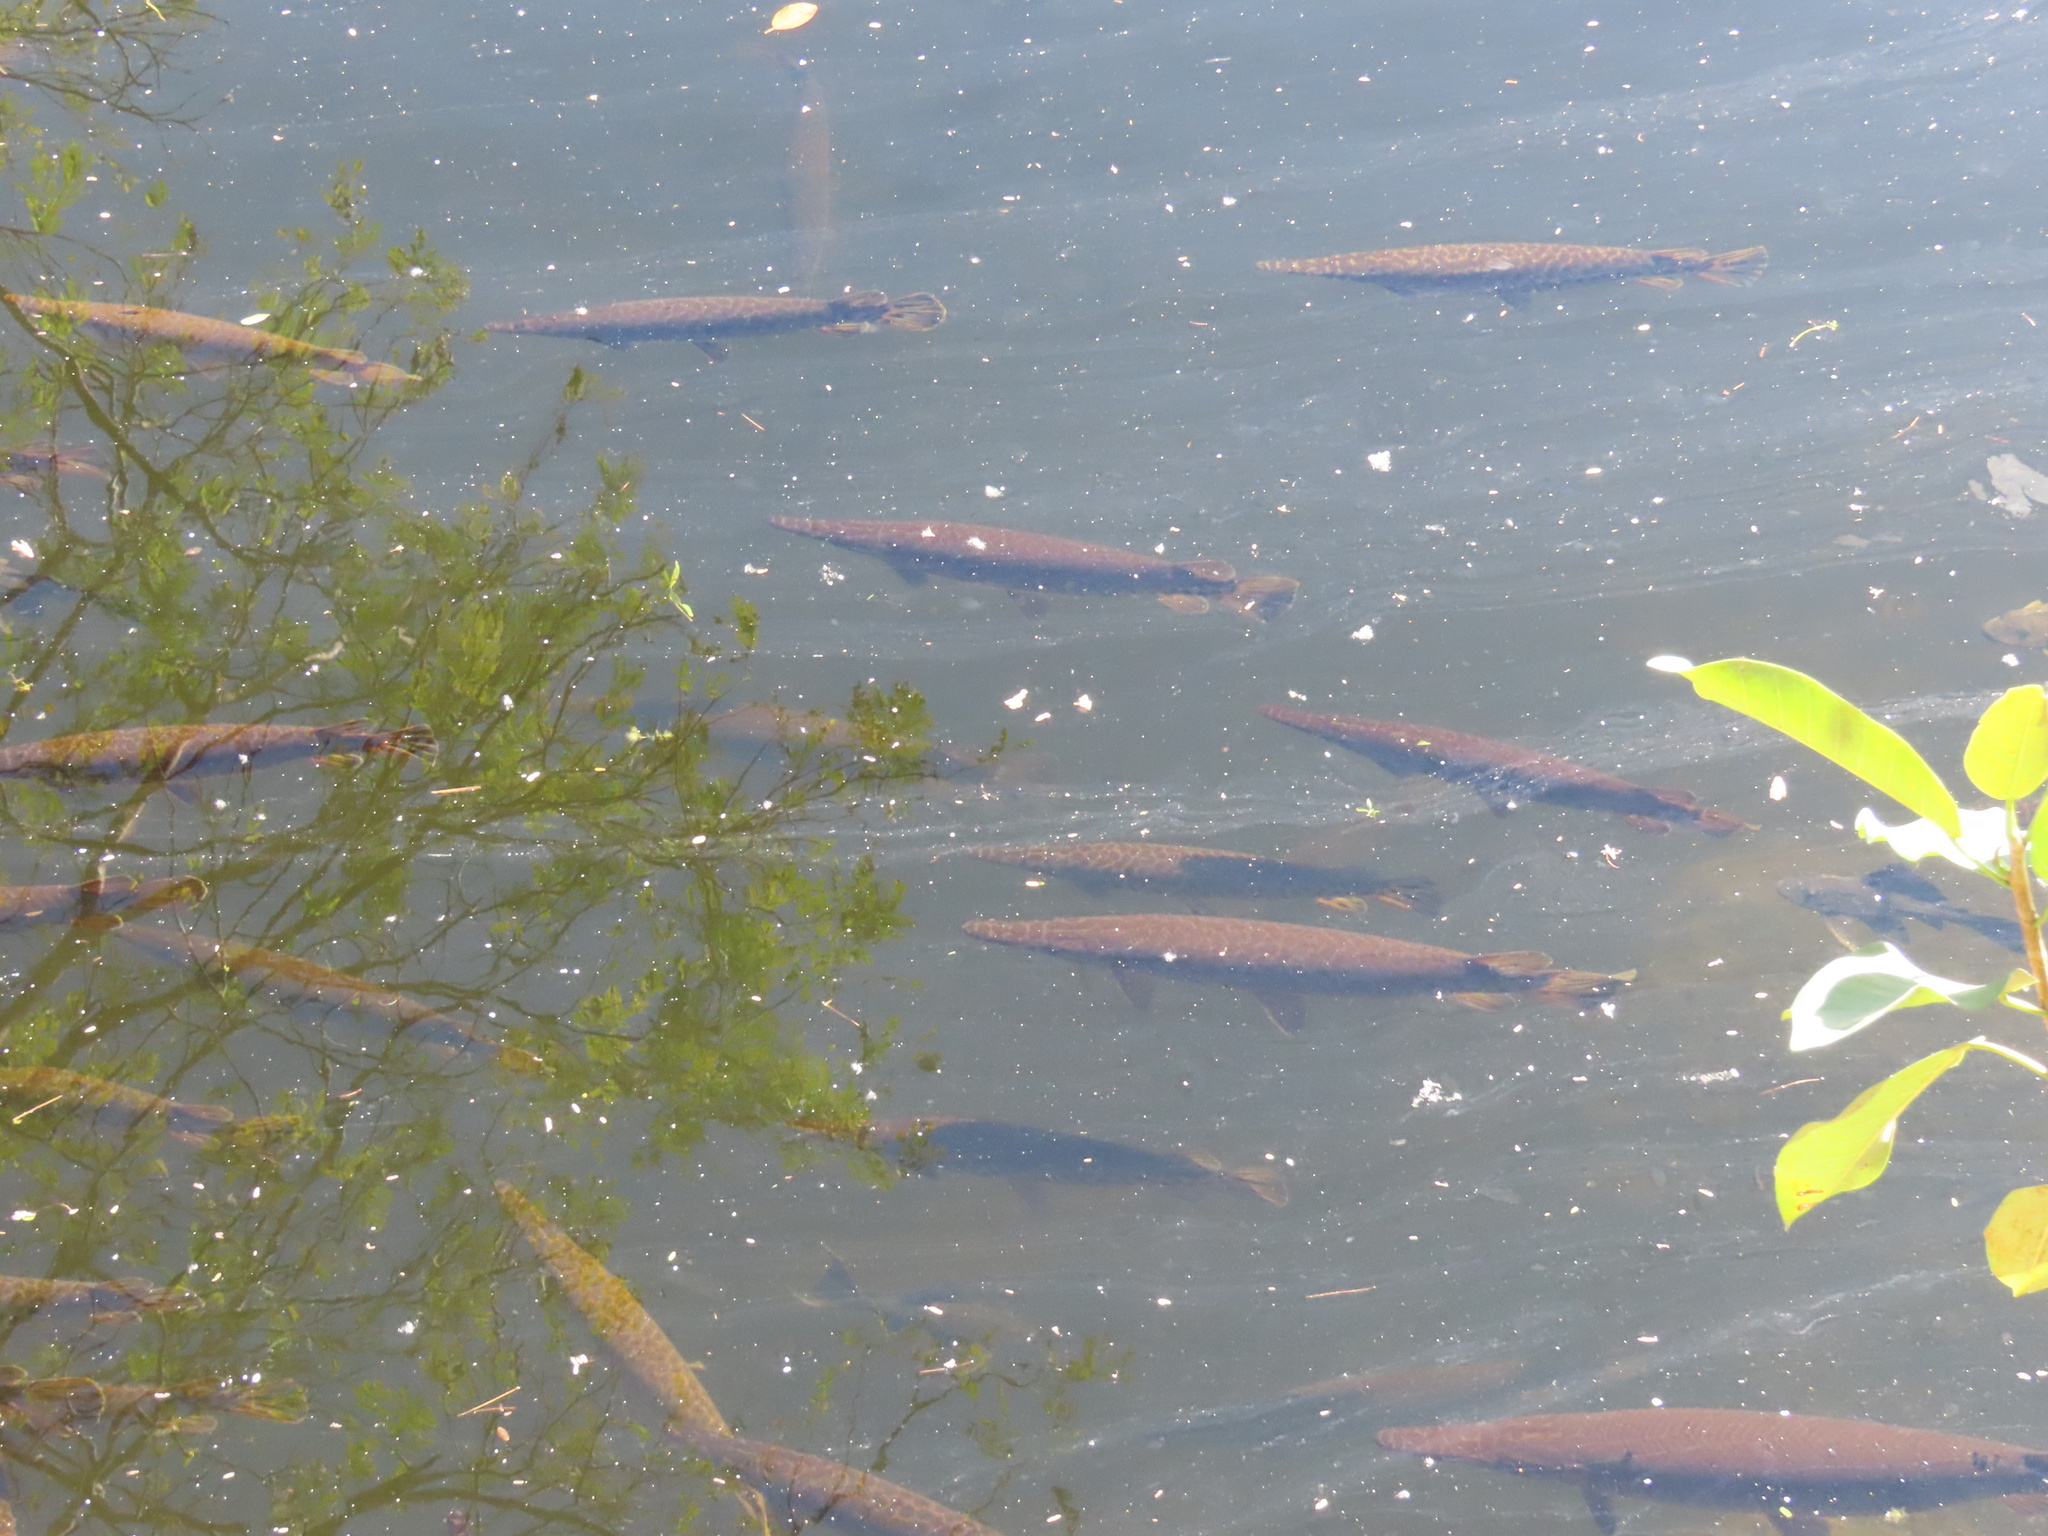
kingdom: Animalia
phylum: Chordata
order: Lepisosteiformes
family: Lepisosteidae
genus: Lepisosteus
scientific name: Lepisosteus platyrhincus
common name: Florida gar
